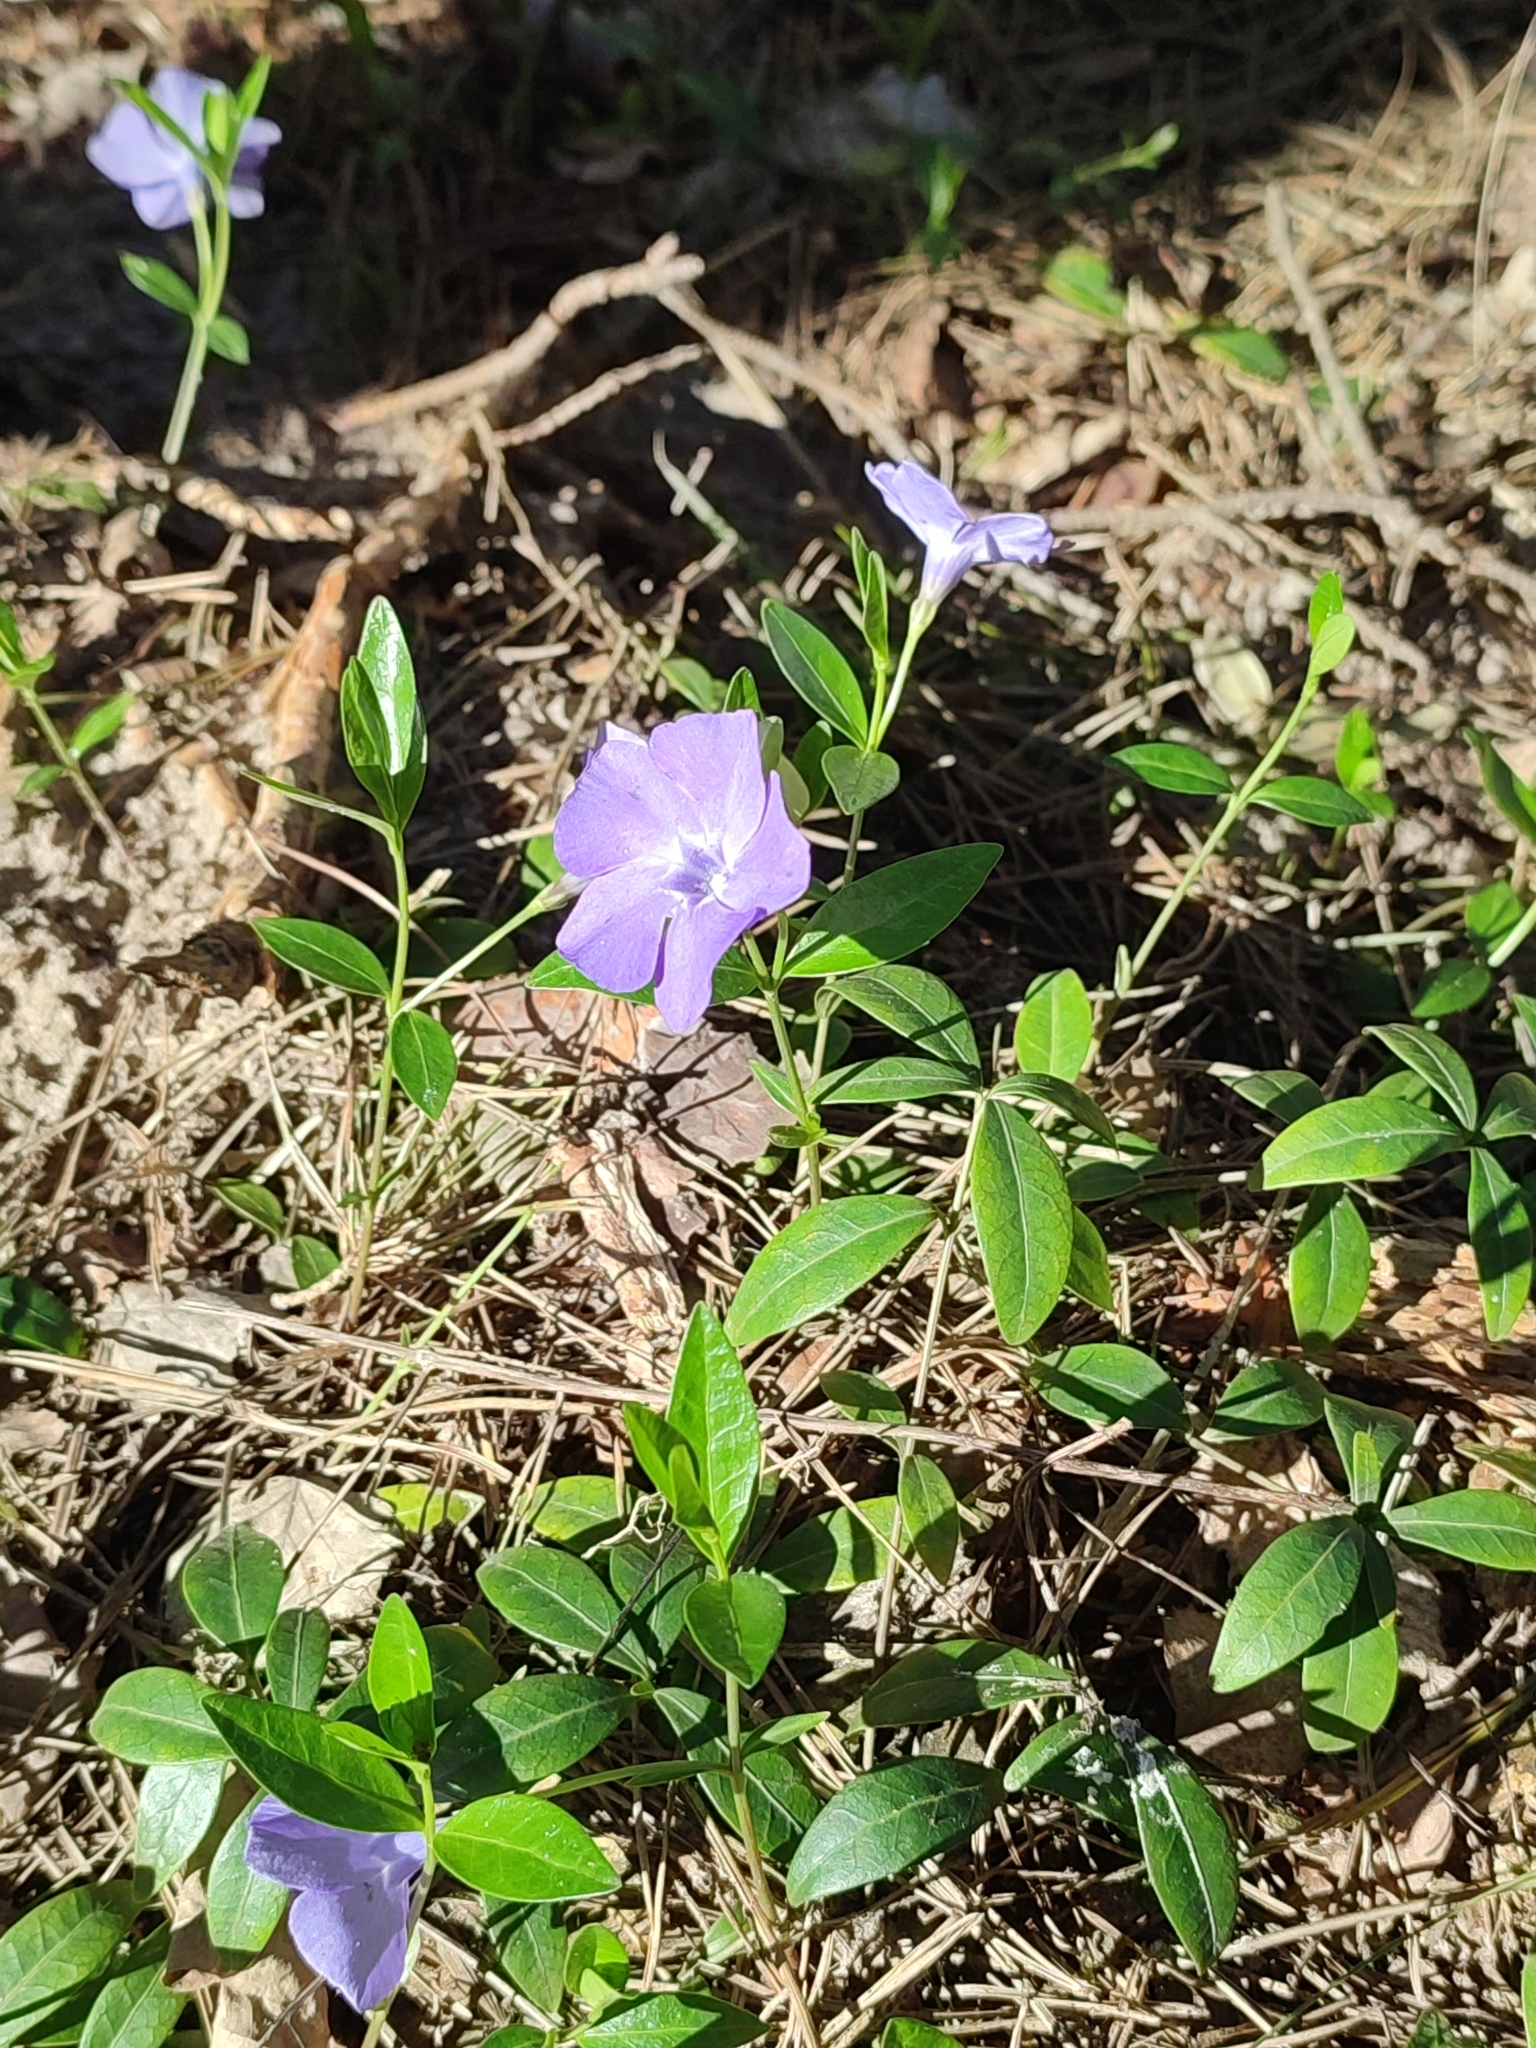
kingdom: Plantae
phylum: Tracheophyta
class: Magnoliopsida
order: Gentianales
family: Apocynaceae
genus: Vinca
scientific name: Vinca minor
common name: Lesser periwinkle
